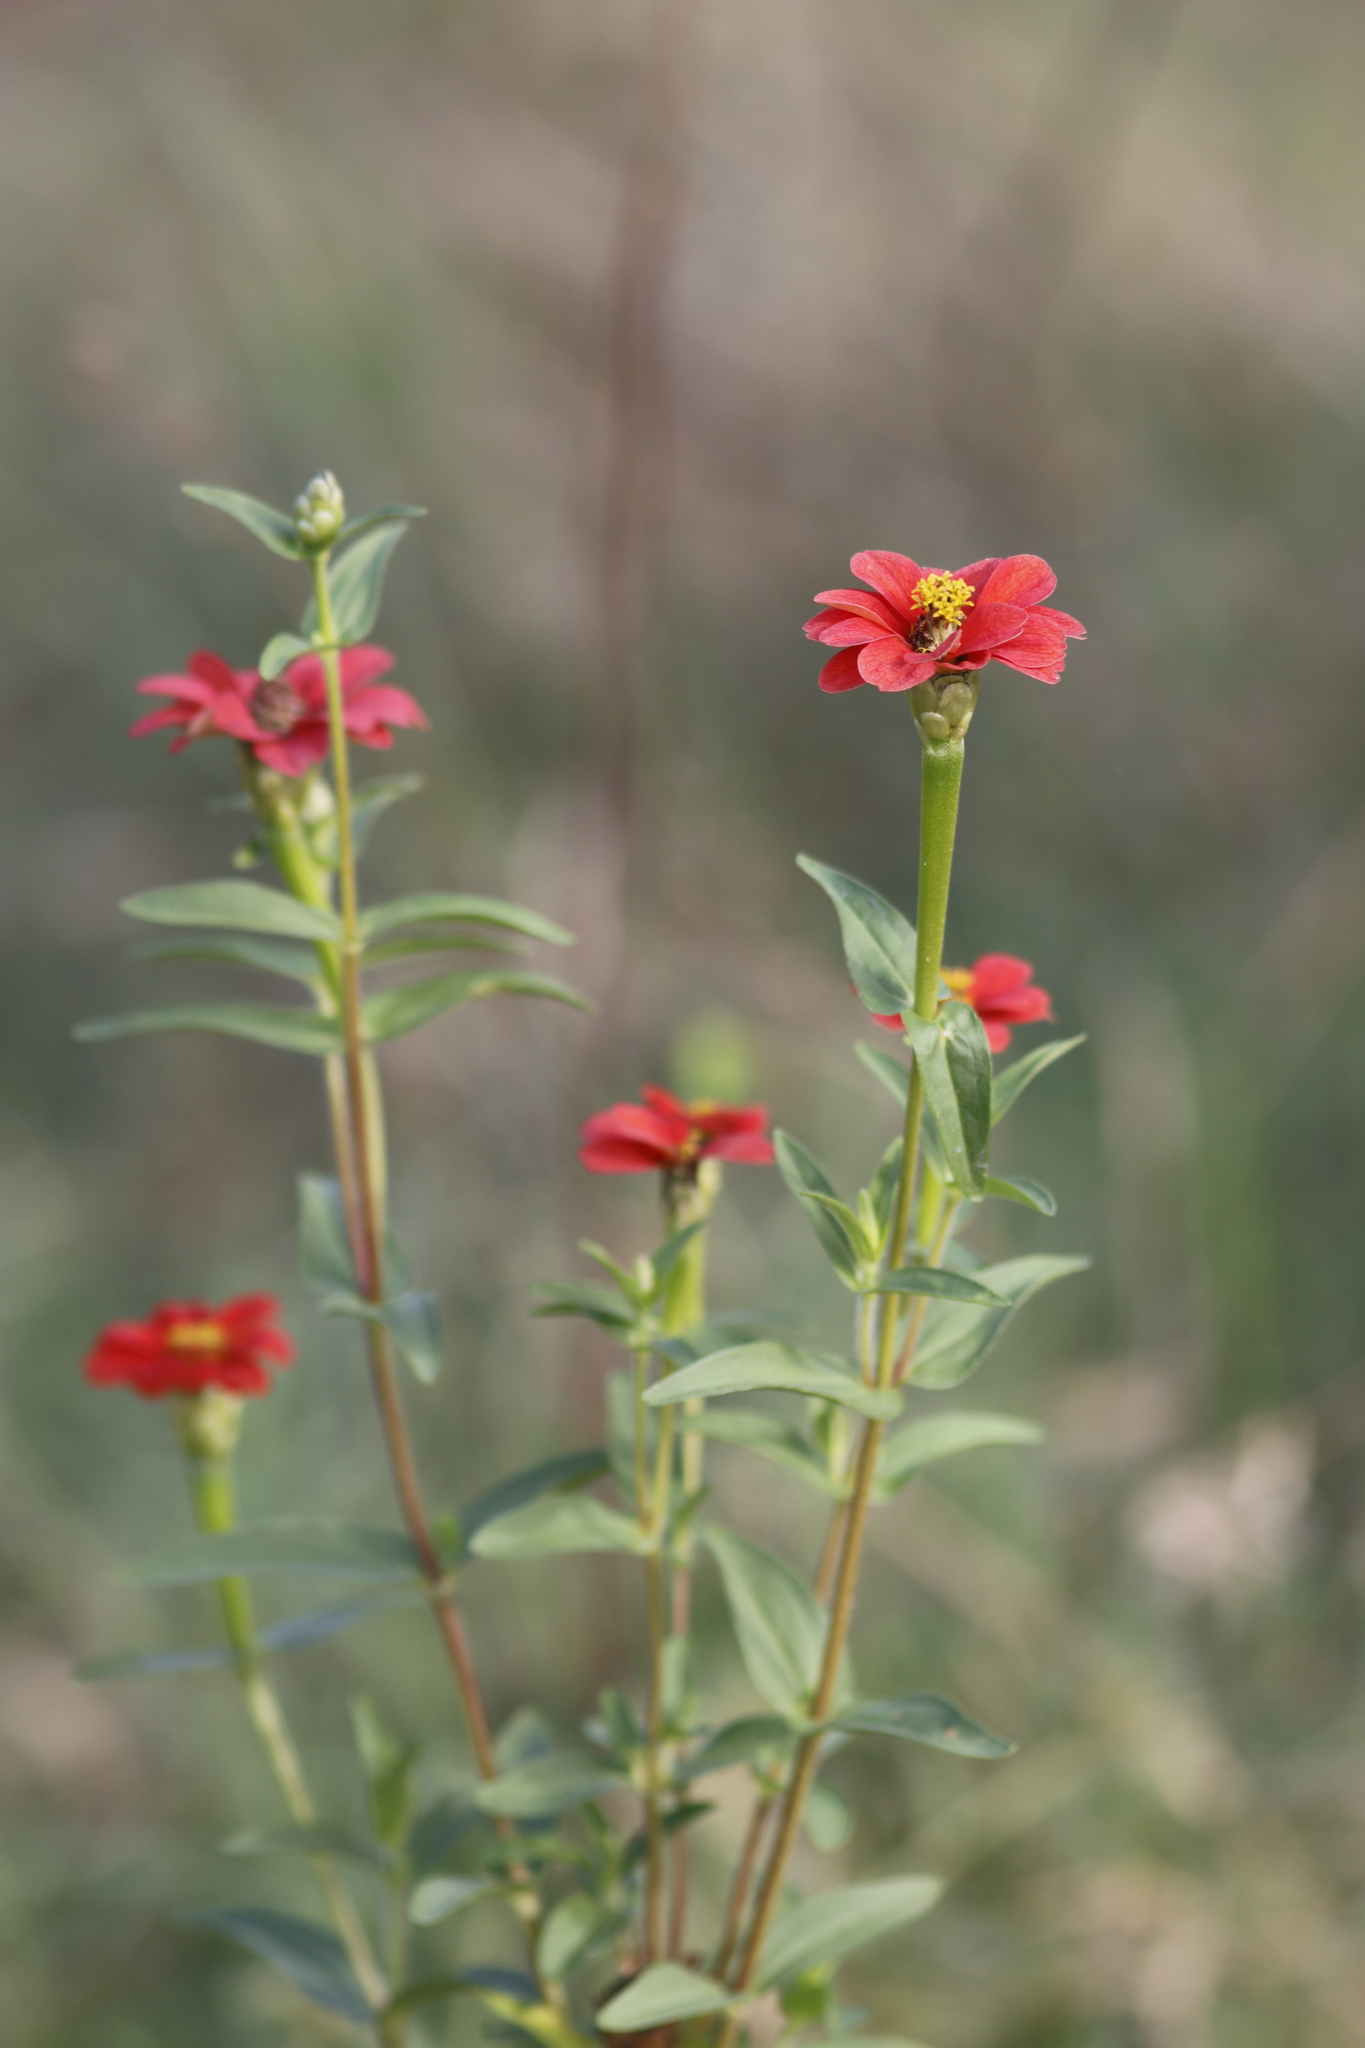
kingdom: Plantae
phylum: Tracheophyta
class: Magnoliopsida
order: Asterales
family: Asteraceae
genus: Zinnia
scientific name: Zinnia peruviana
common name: Peruvian zinnia
